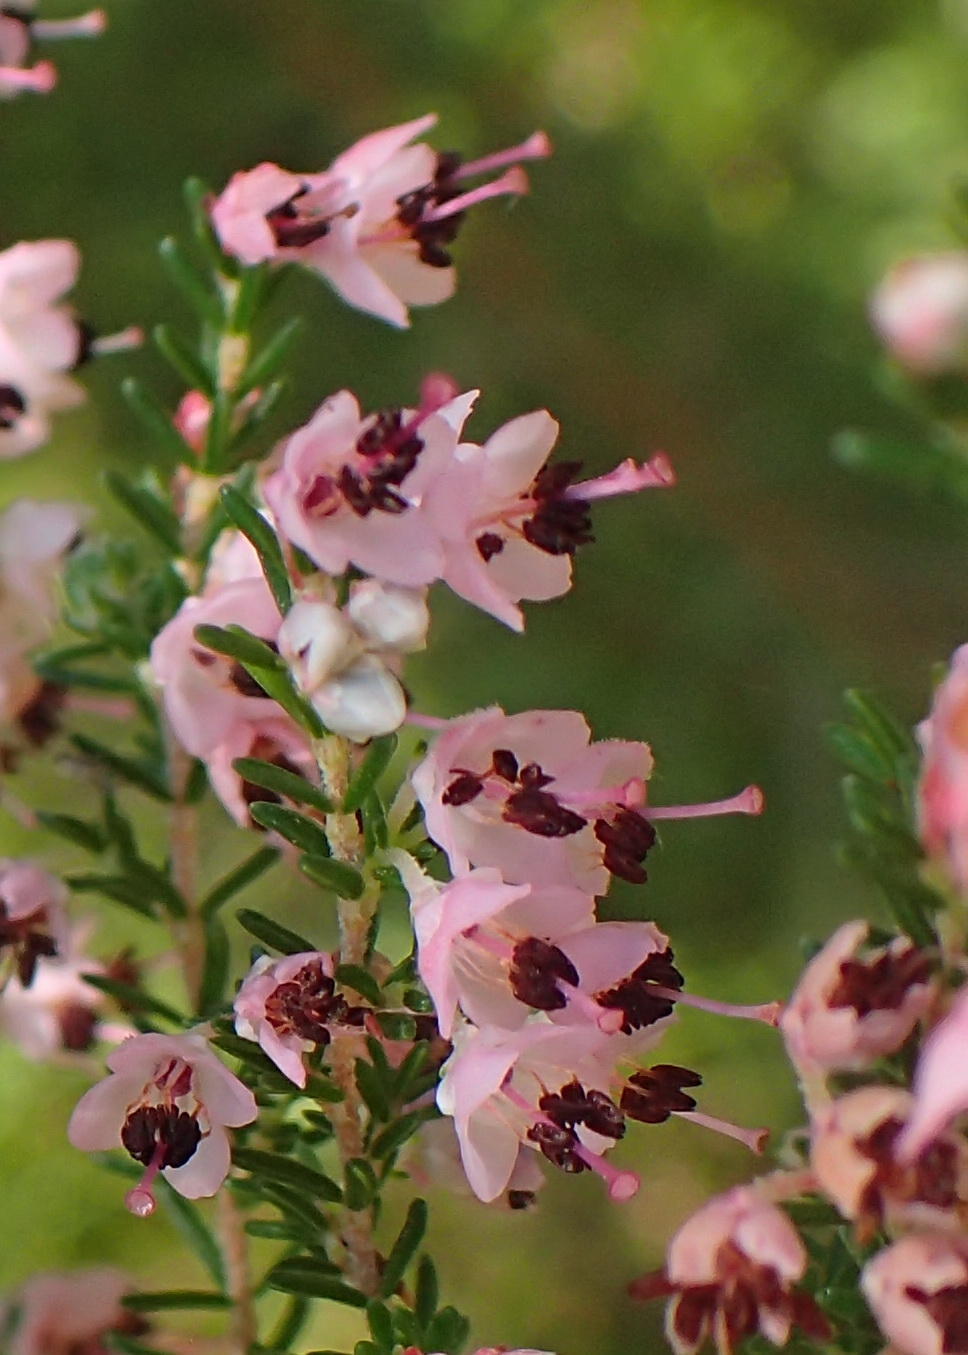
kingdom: Plantae
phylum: Tracheophyta
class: Magnoliopsida
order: Ericales
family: Ericaceae
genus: Erica
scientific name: Erica sparsa
